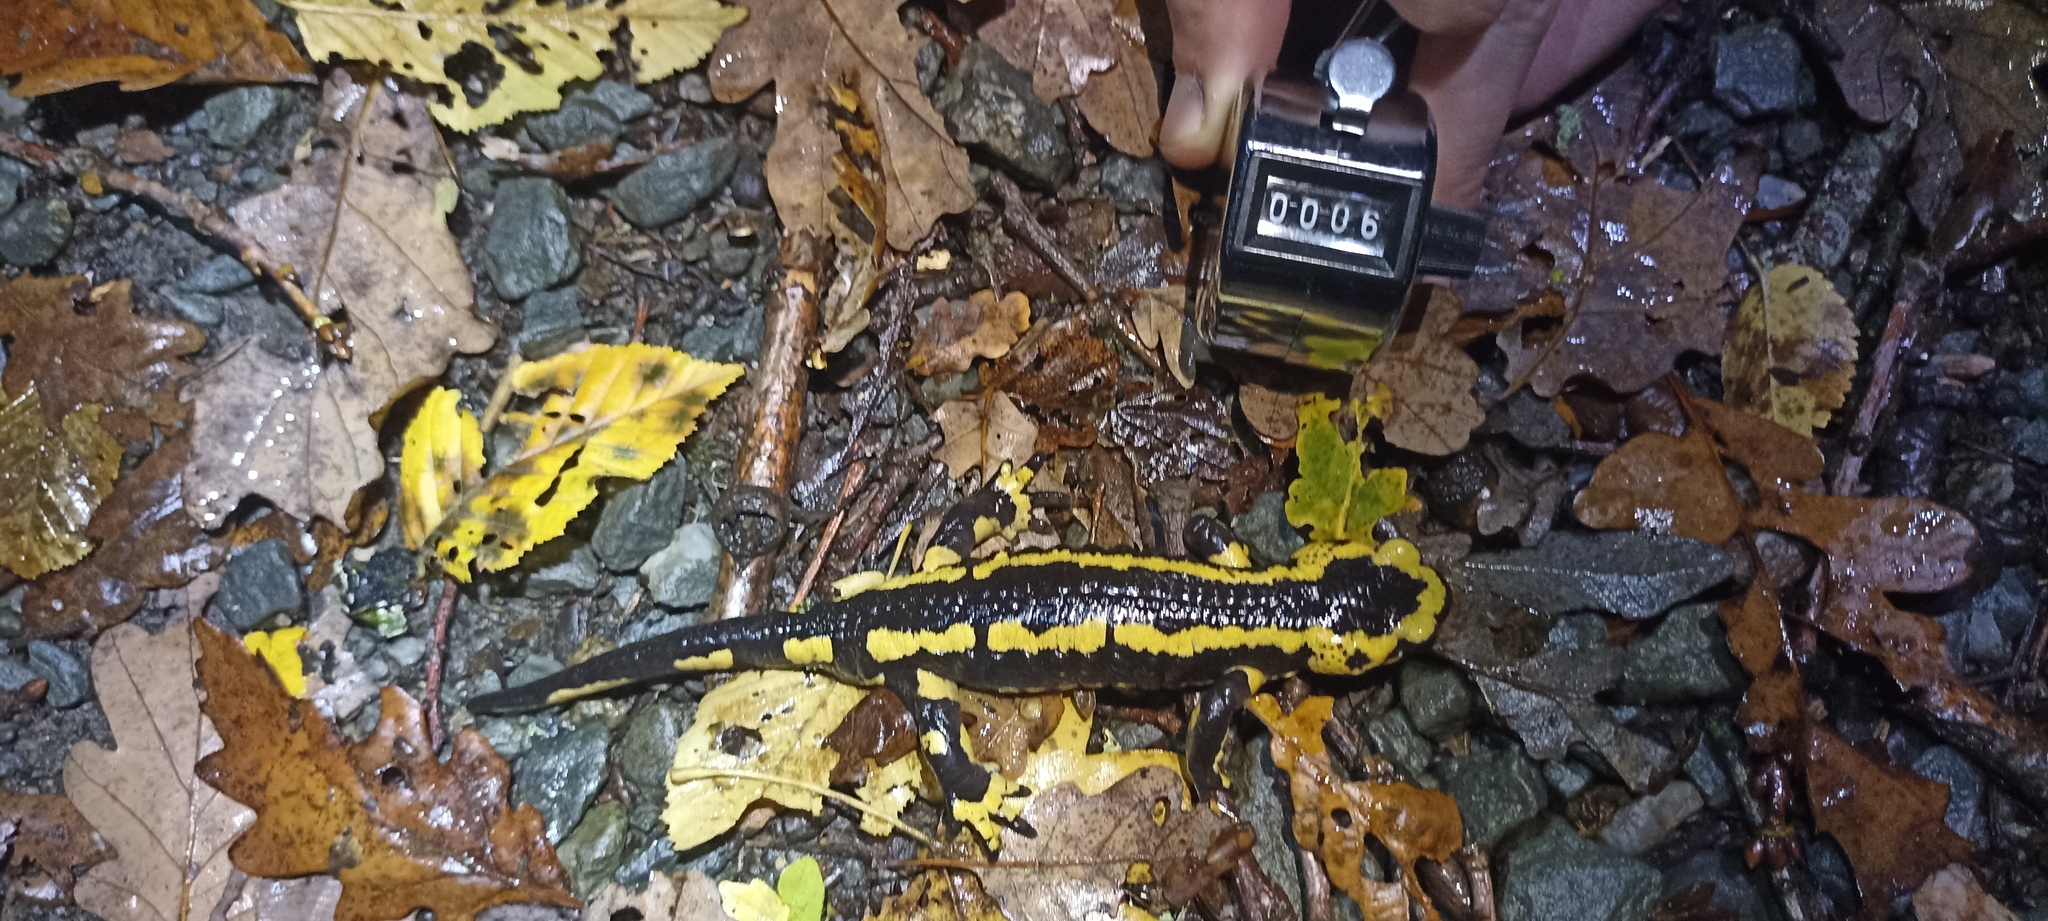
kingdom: Animalia
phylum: Chordata
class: Amphibia
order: Caudata
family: Salamandridae
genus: Salamandra
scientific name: Salamandra salamandra
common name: Fire salamander
